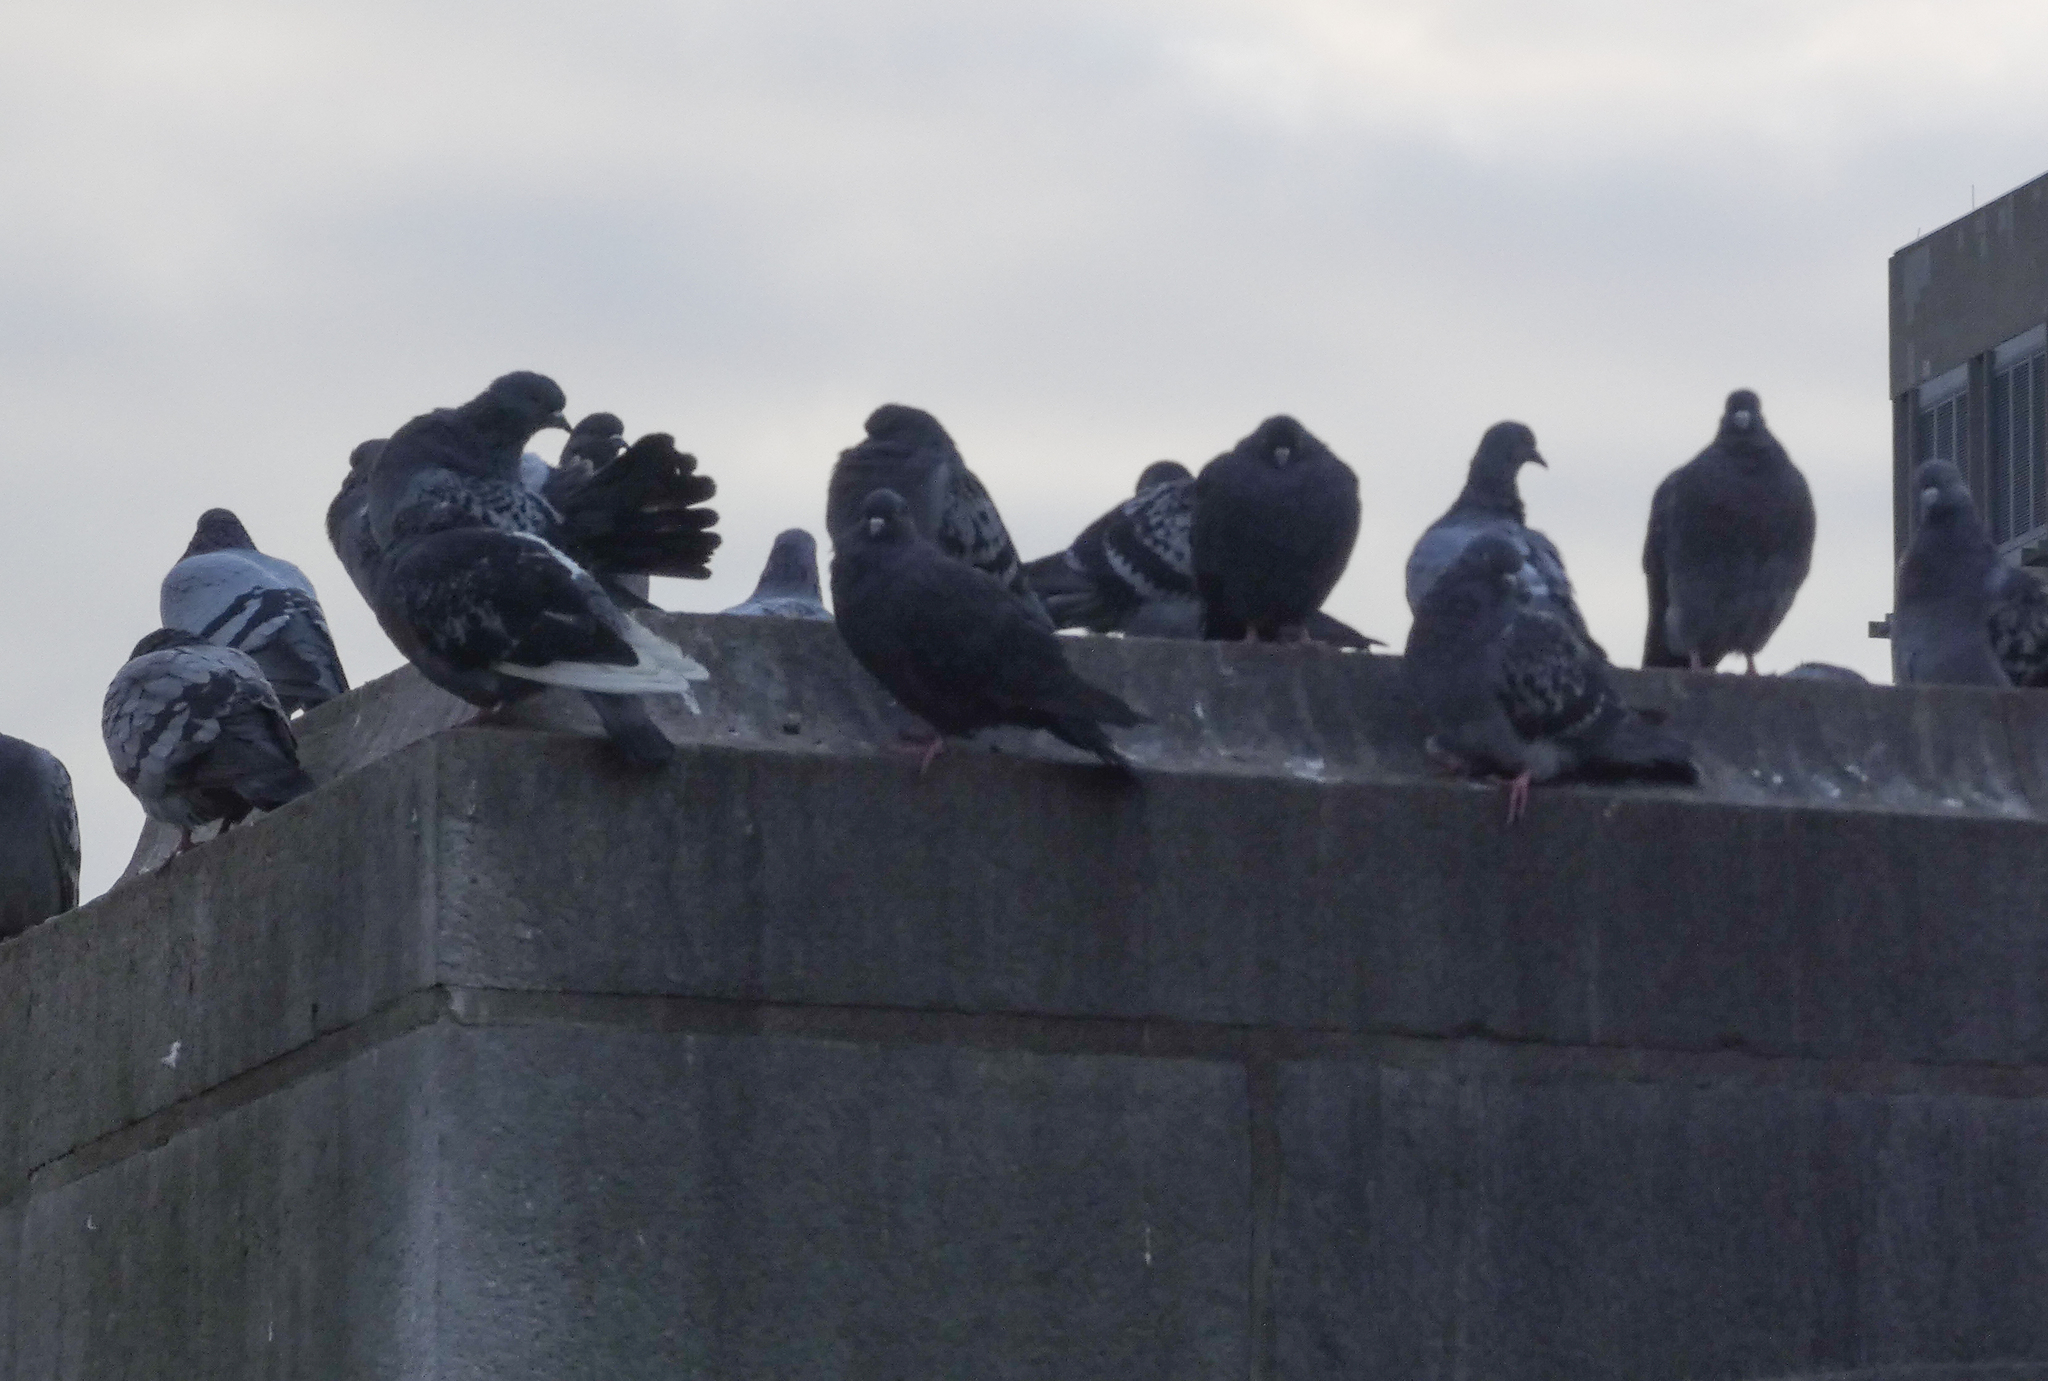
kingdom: Animalia
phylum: Chordata
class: Aves
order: Columbiformes
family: Columbidae
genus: Columba
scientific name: Columba livia
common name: Rock pigeon
